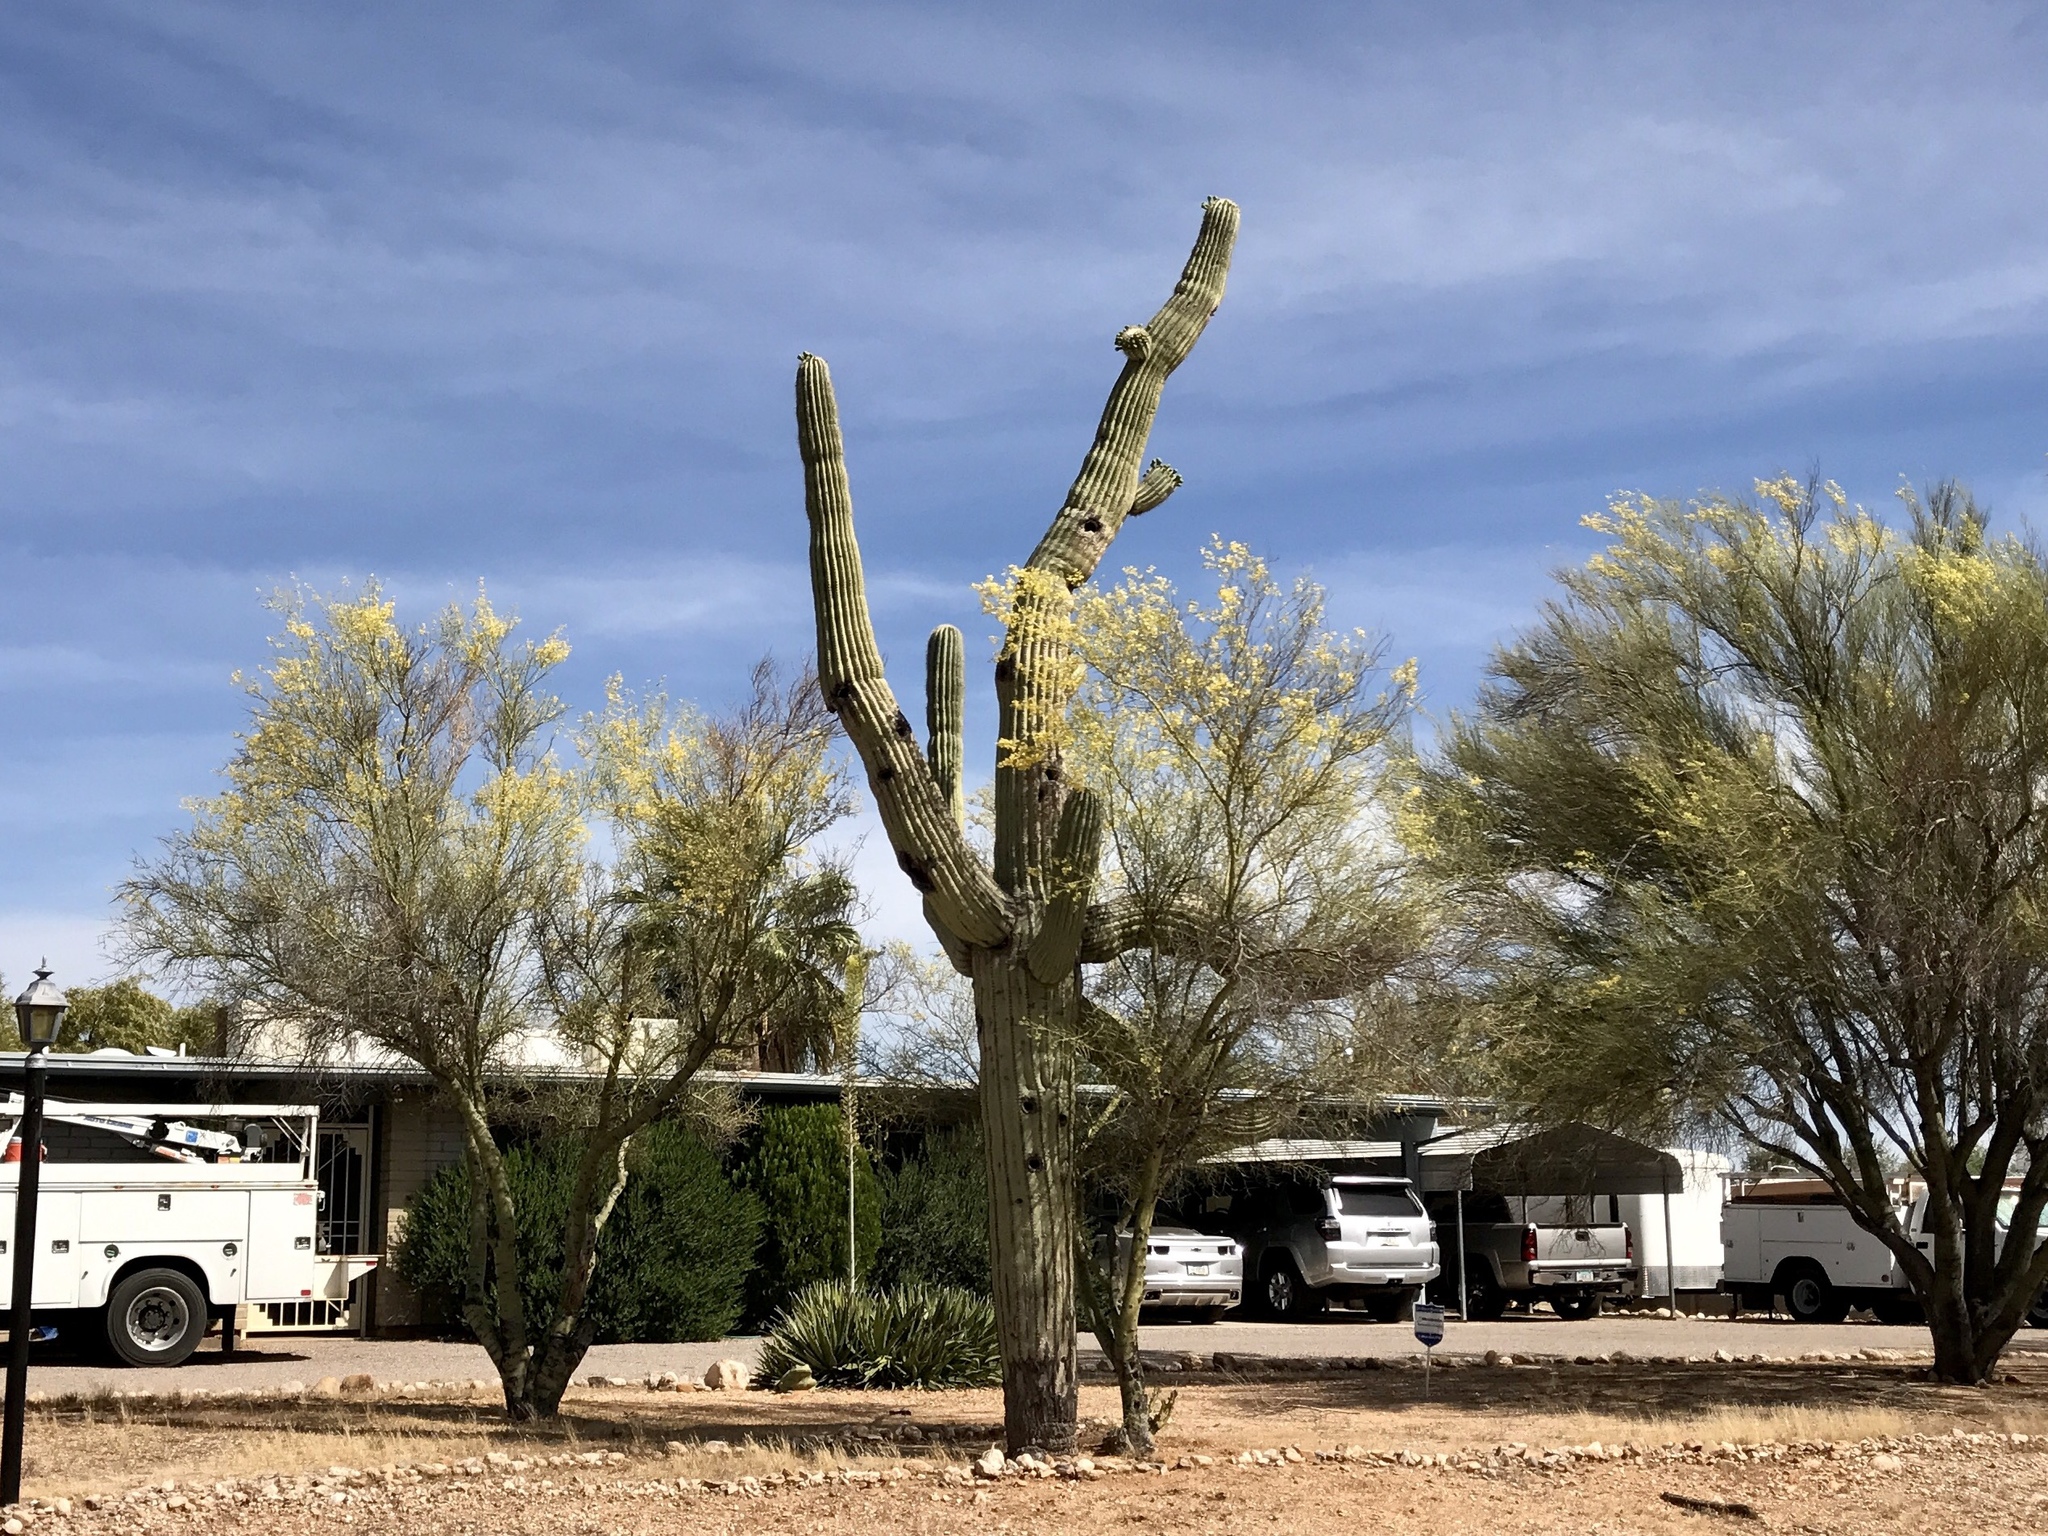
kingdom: Plantae
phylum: Tracheophyta
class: Magnoliopsida
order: Caryophyllales
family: Cactaceae
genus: Carnegiea
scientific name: Carnegiea gigantea
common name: Saguaro
